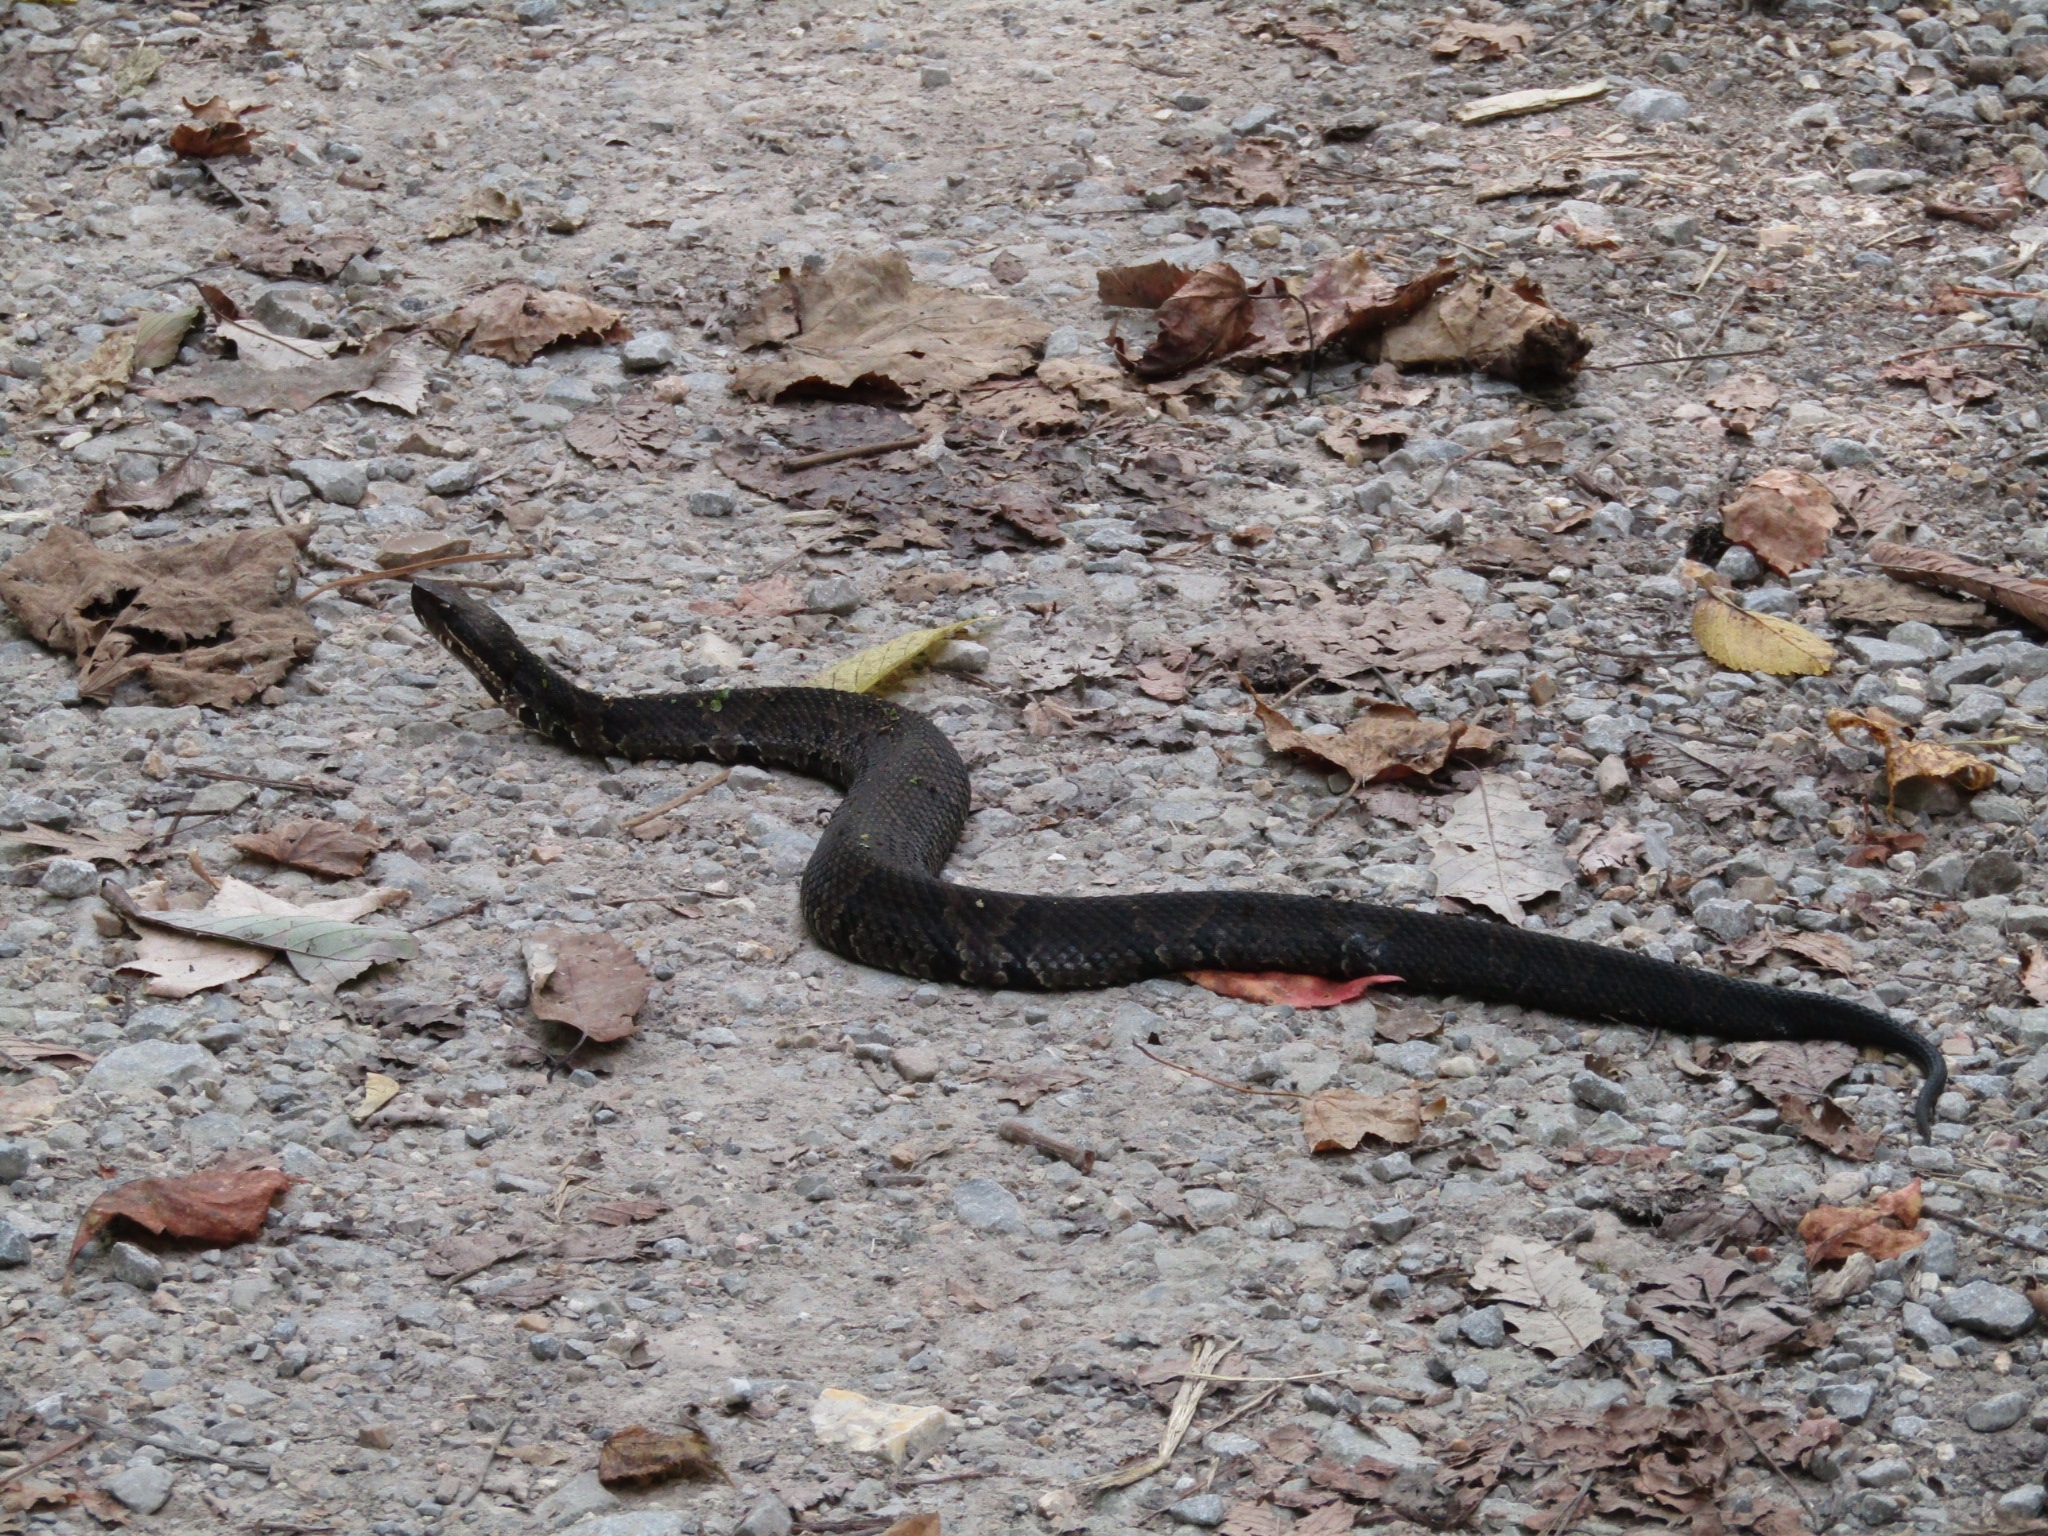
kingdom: Animalia
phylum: Chordata
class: Squamata
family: Viperidae
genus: Agkistrodon
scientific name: Agkistrodon piscivorus
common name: Cottonmouth
